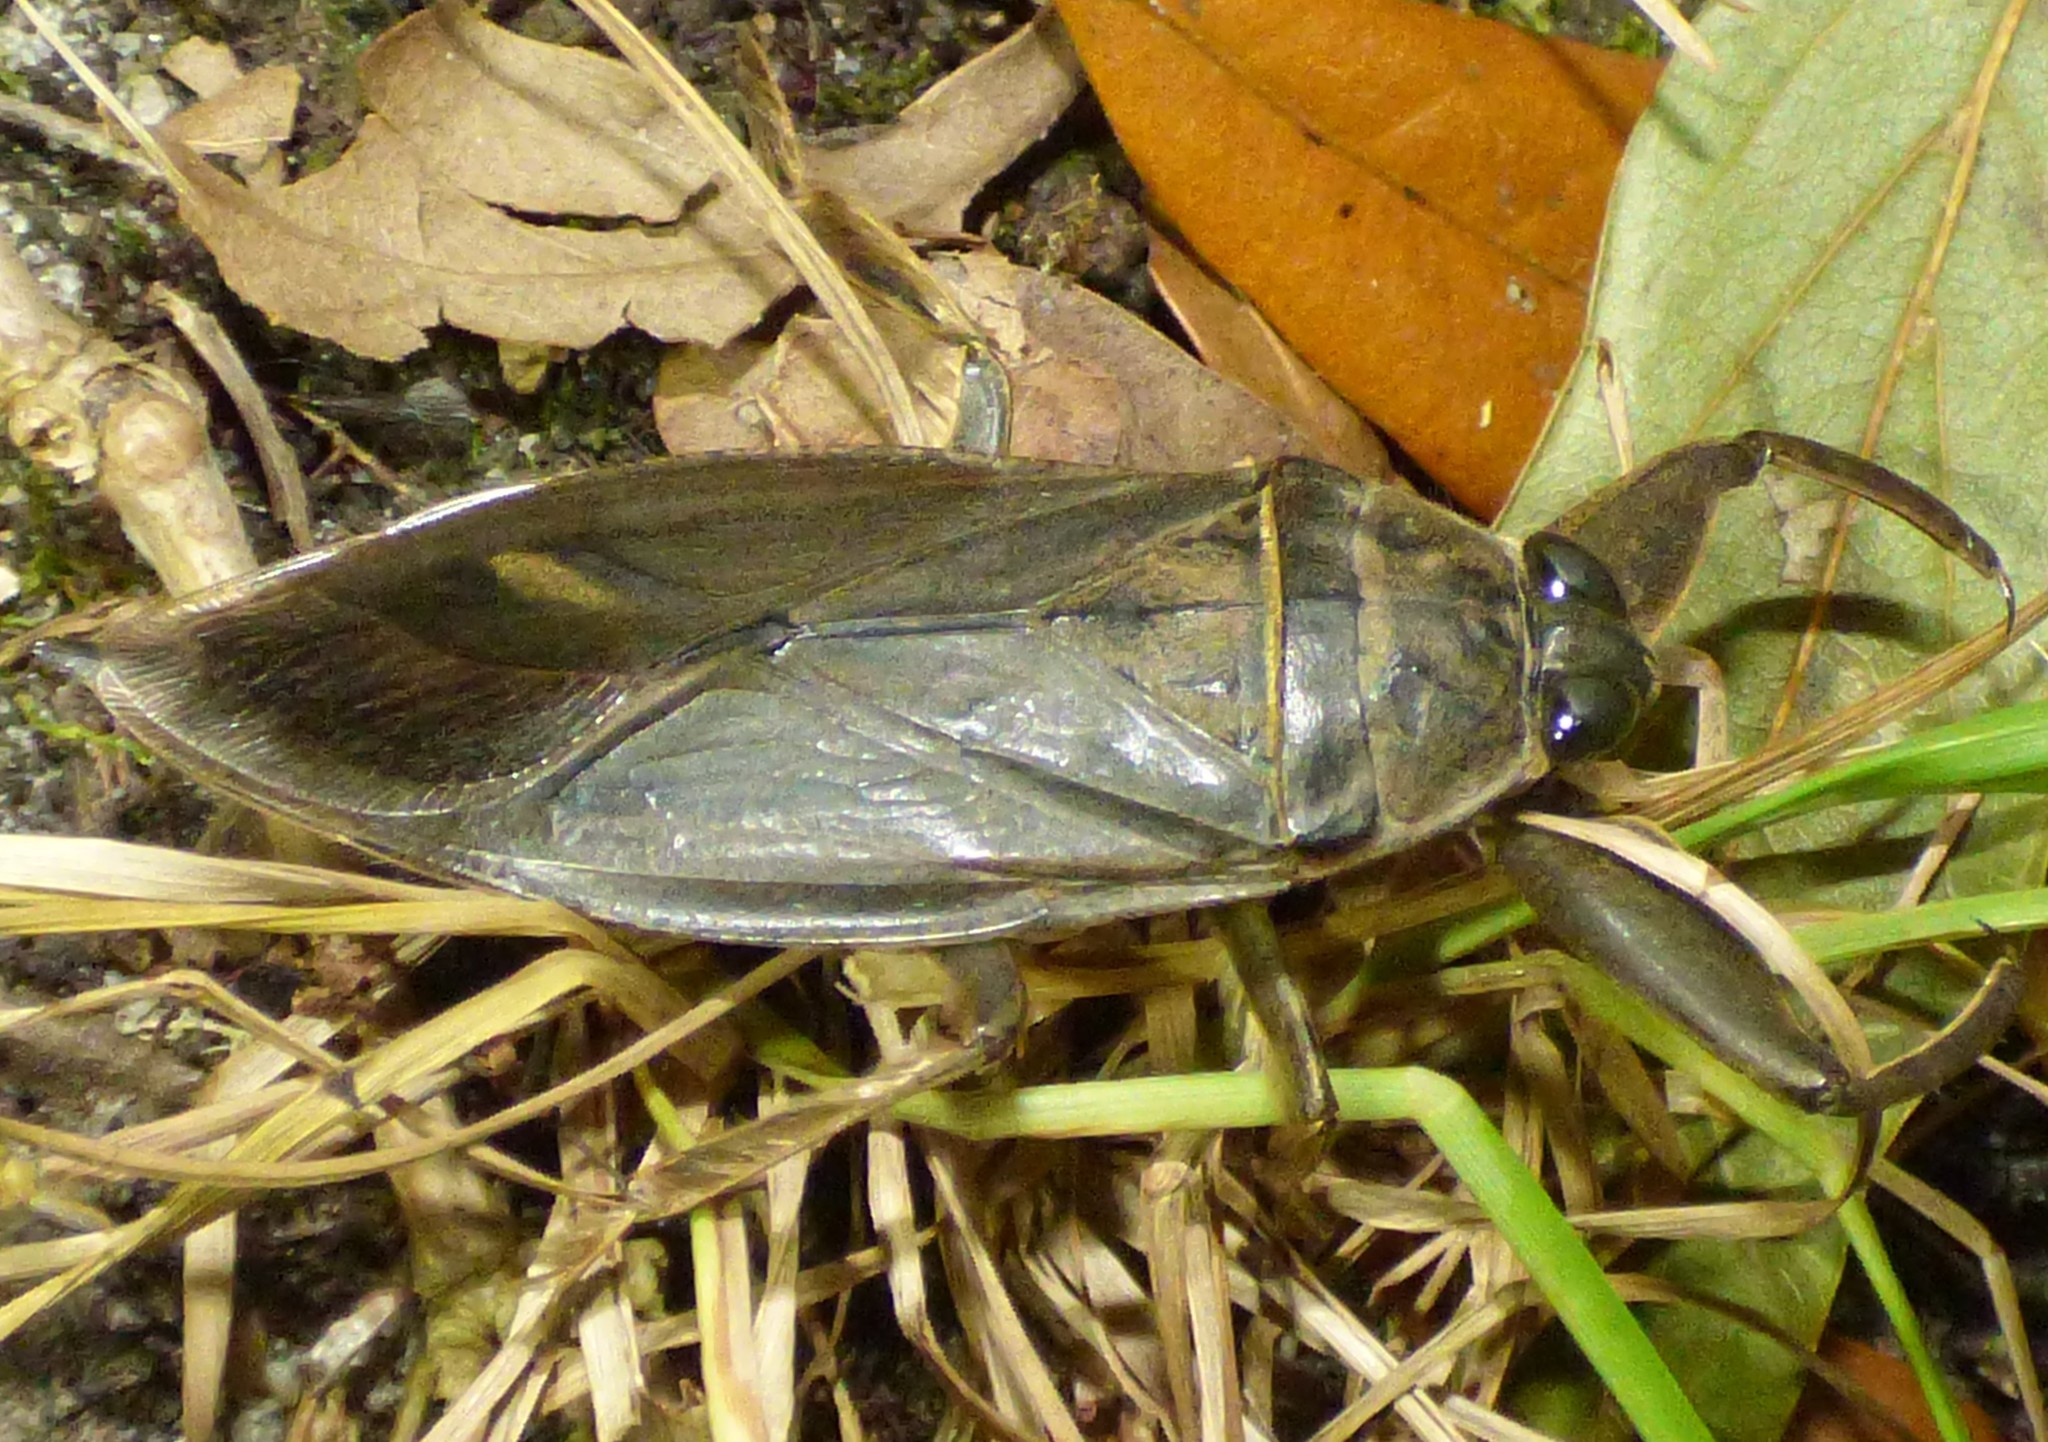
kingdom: Animalia
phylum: Arthropoda
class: Insecta
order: Hemiptera
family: Belostomatidae
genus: Lethocerus
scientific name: Lethocerus uhleri
